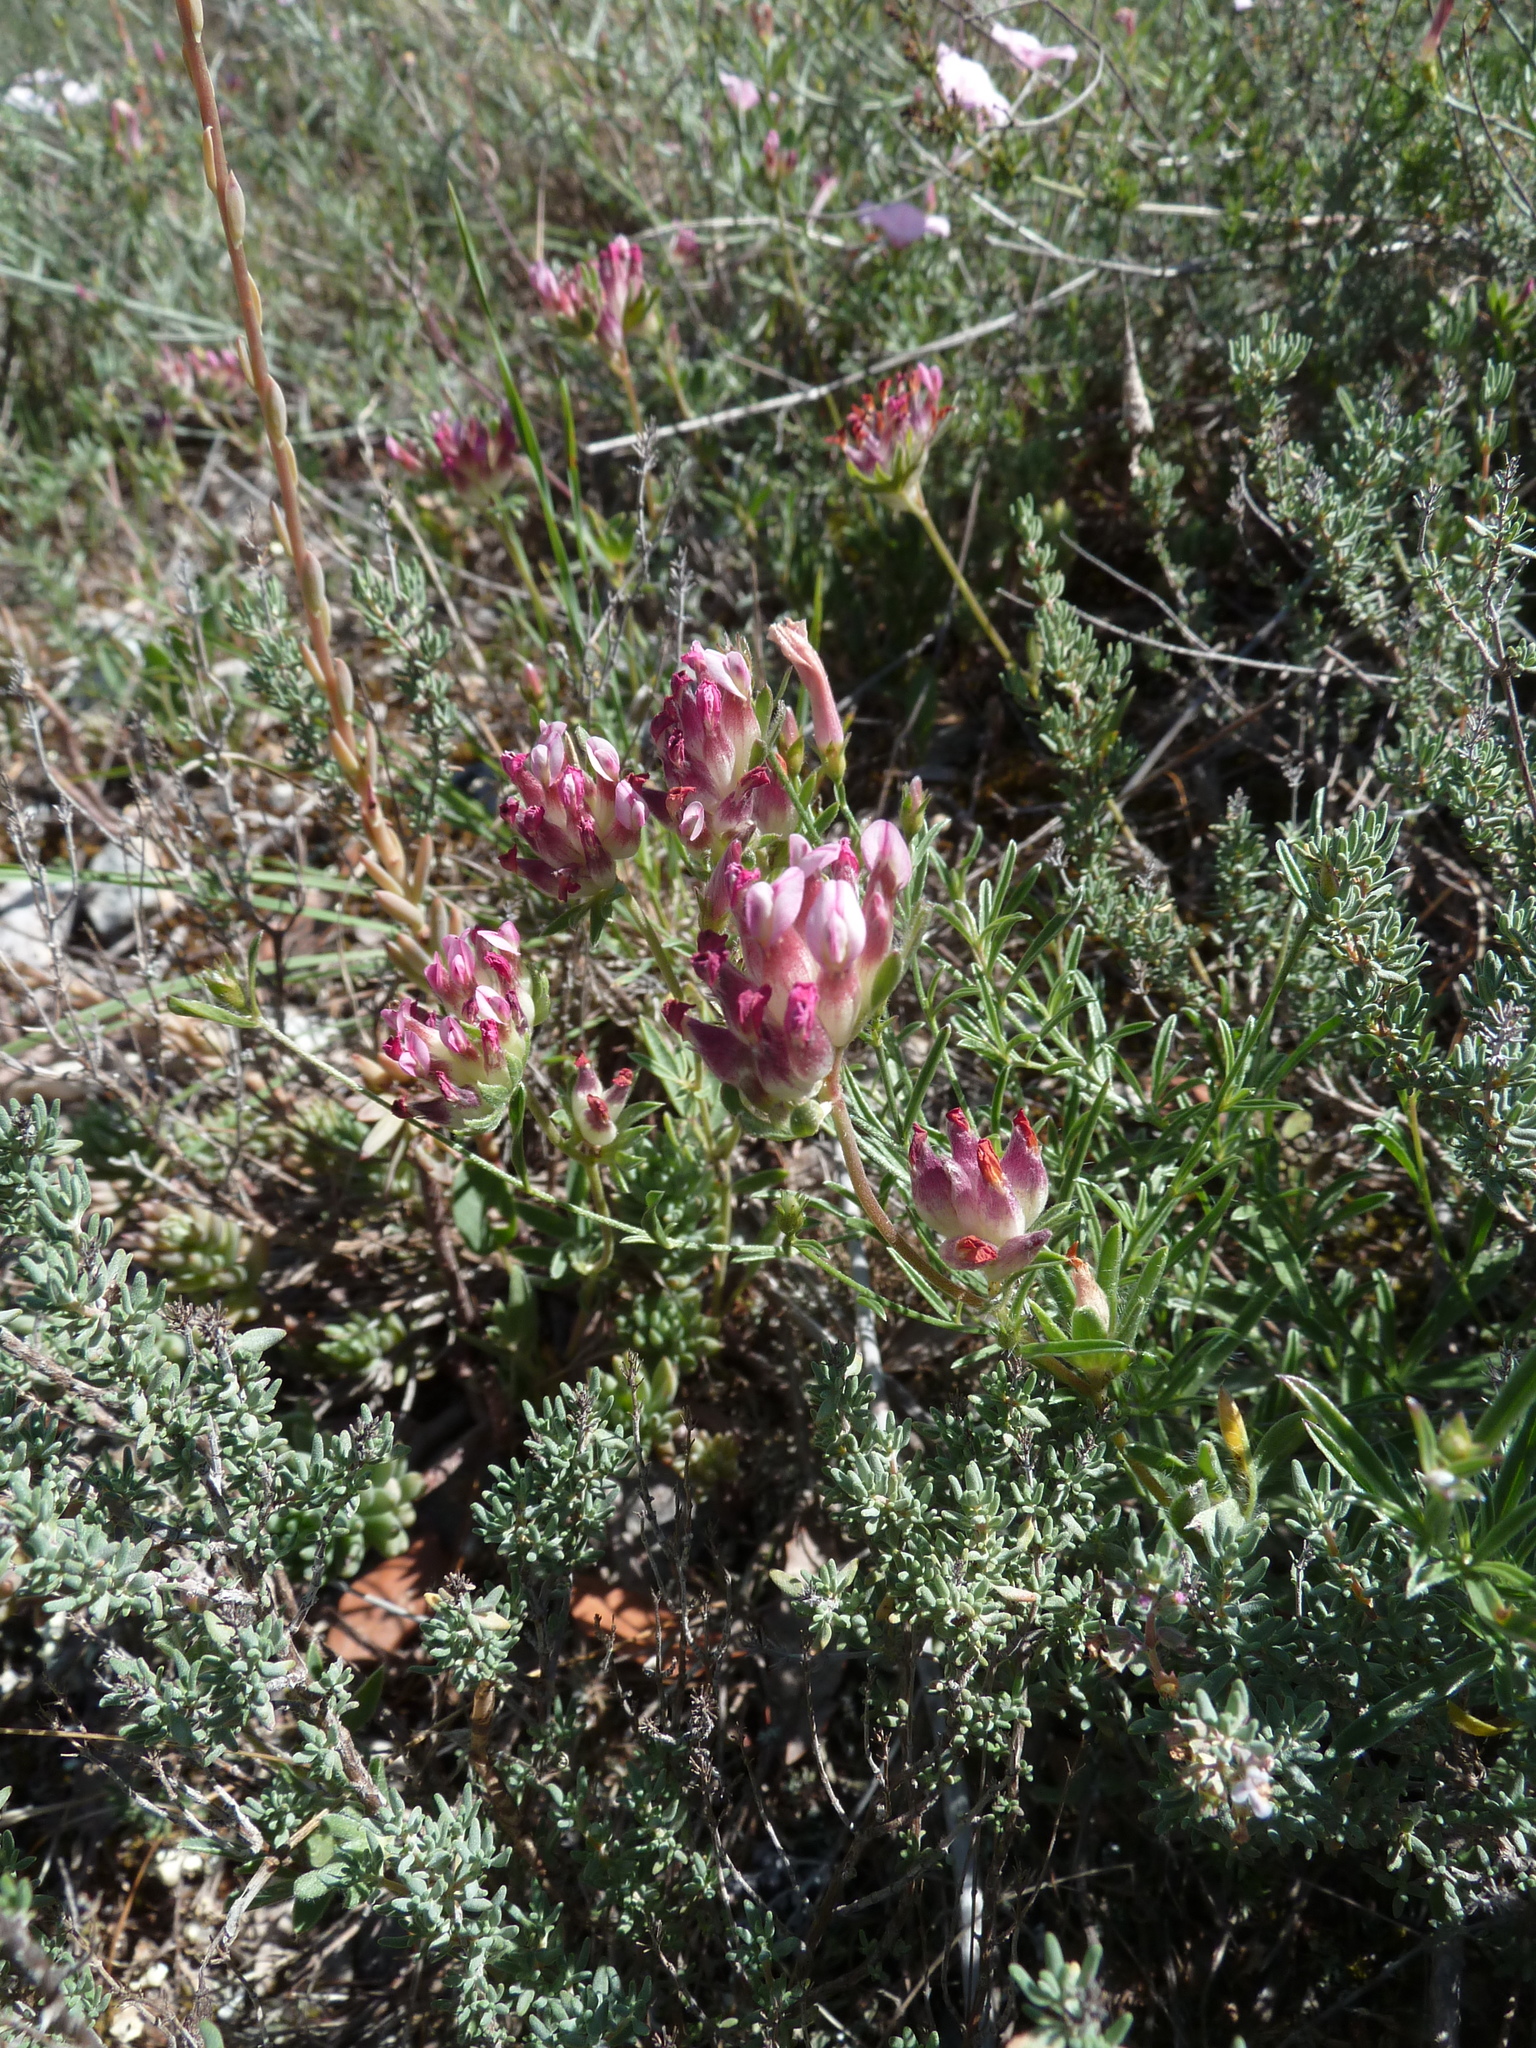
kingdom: Plantae
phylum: Tracheophyta
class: Magnoliopsida
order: Fabales
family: Fabaceae
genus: Anthyllis
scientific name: Anthyllis vulneraria
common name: Kidney vetch
